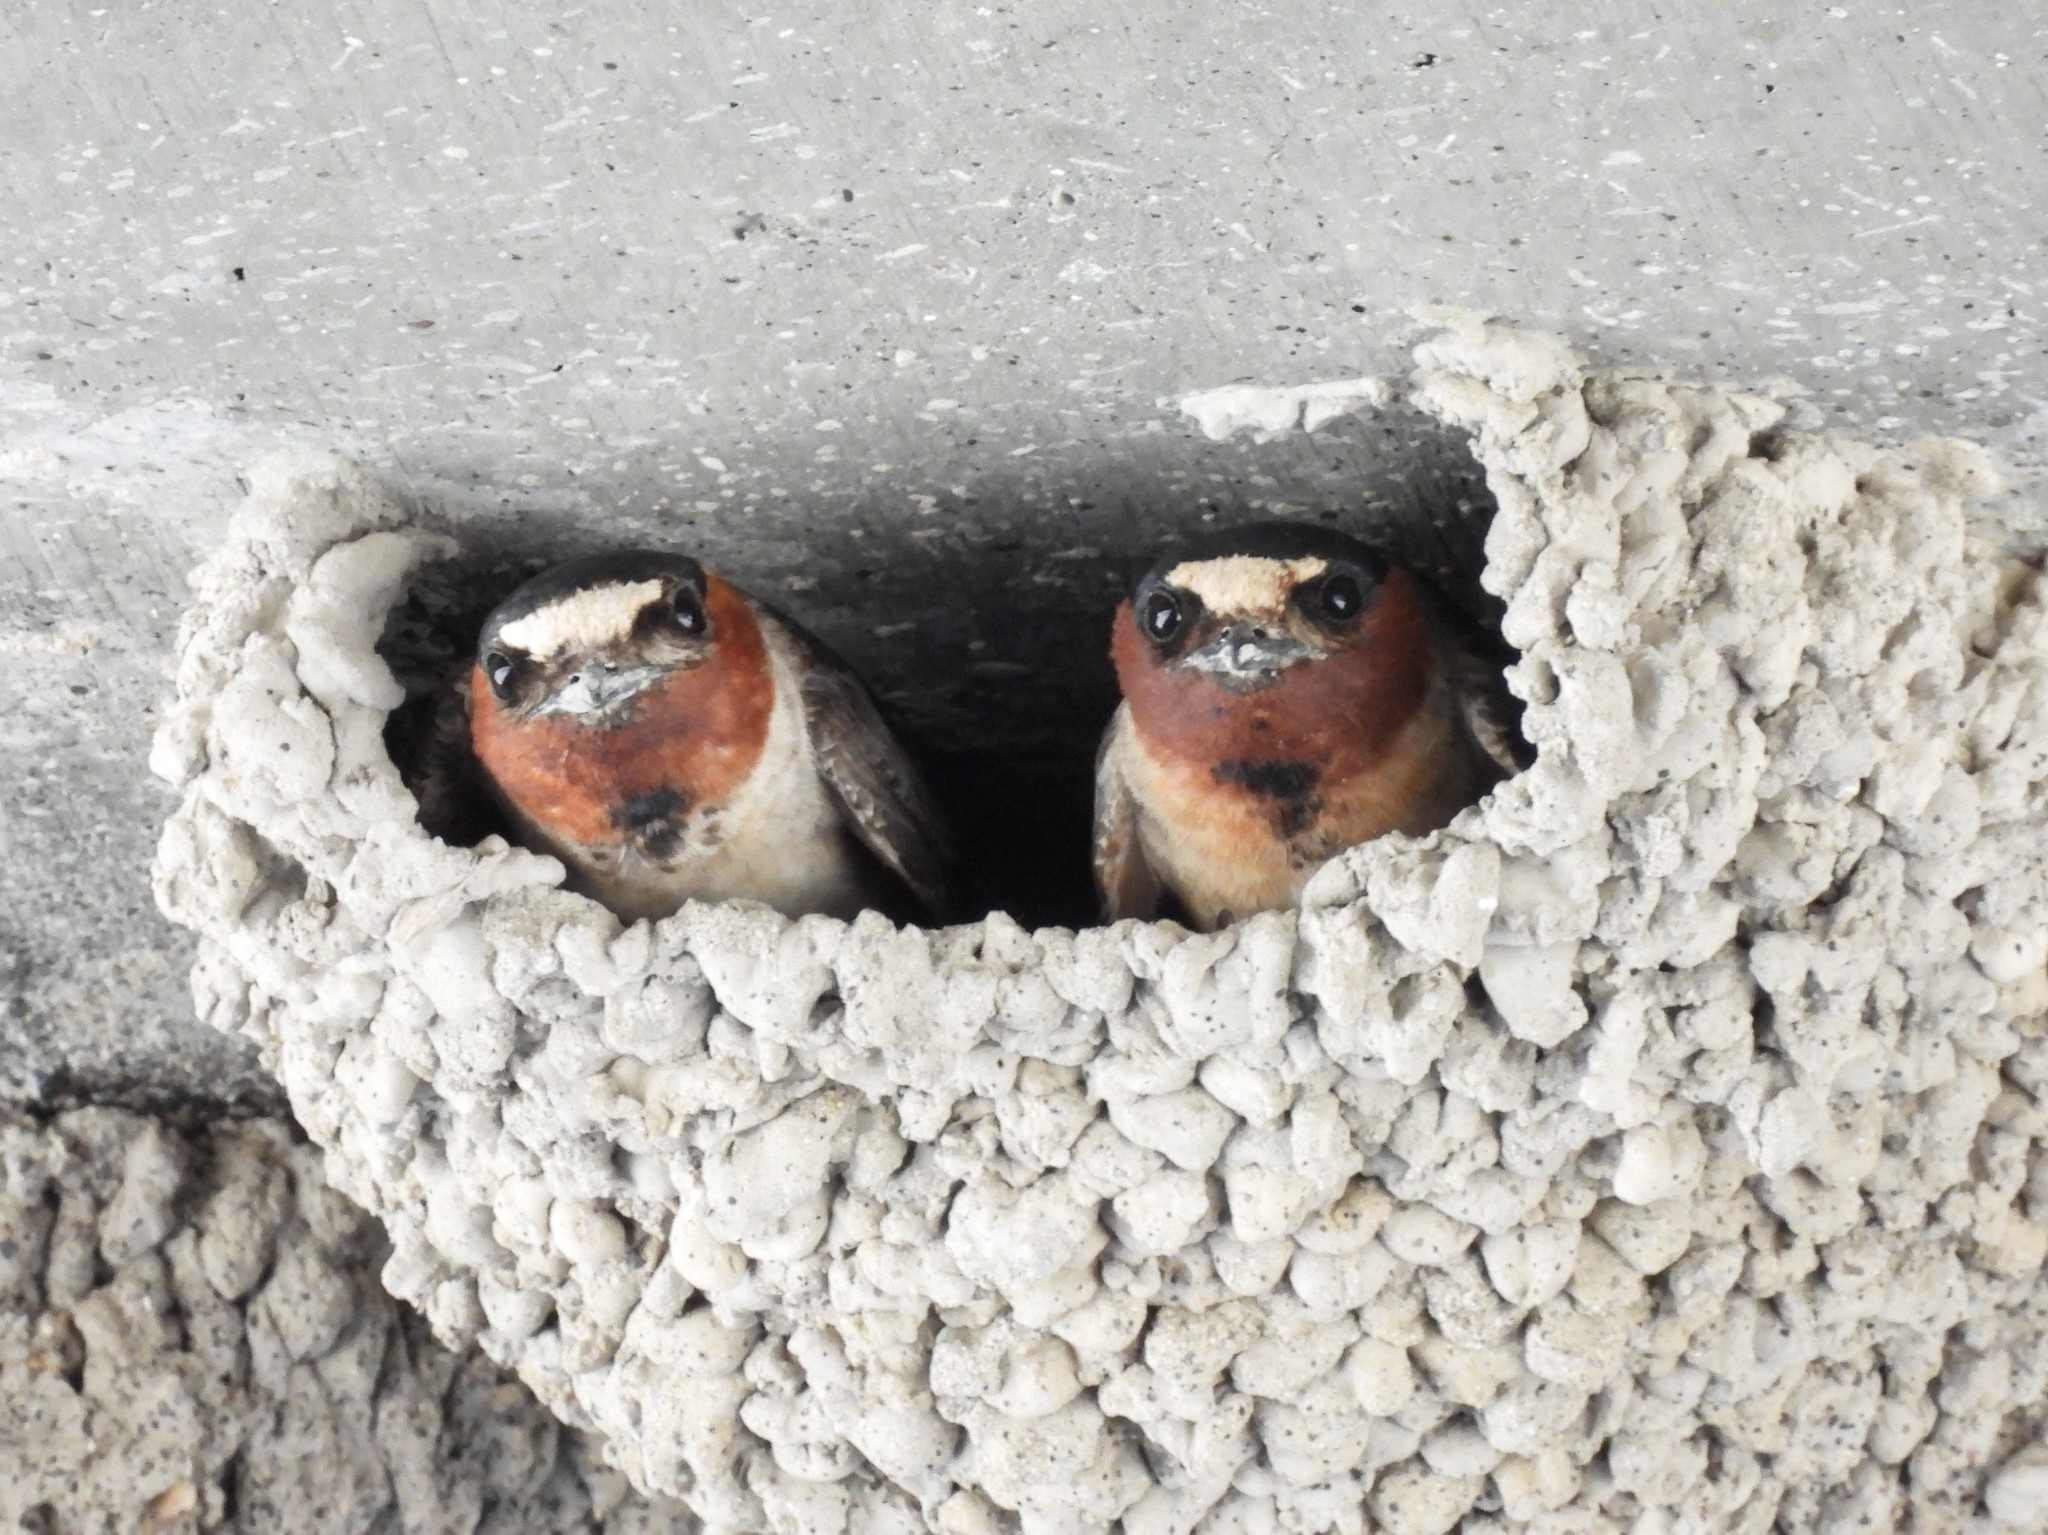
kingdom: Animalia
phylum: Chordata
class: Aves
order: Passeriformes
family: Hirundinidae
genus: Petrochelidon
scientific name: Petrochelidon pyrrhonota
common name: American cliff swallow
